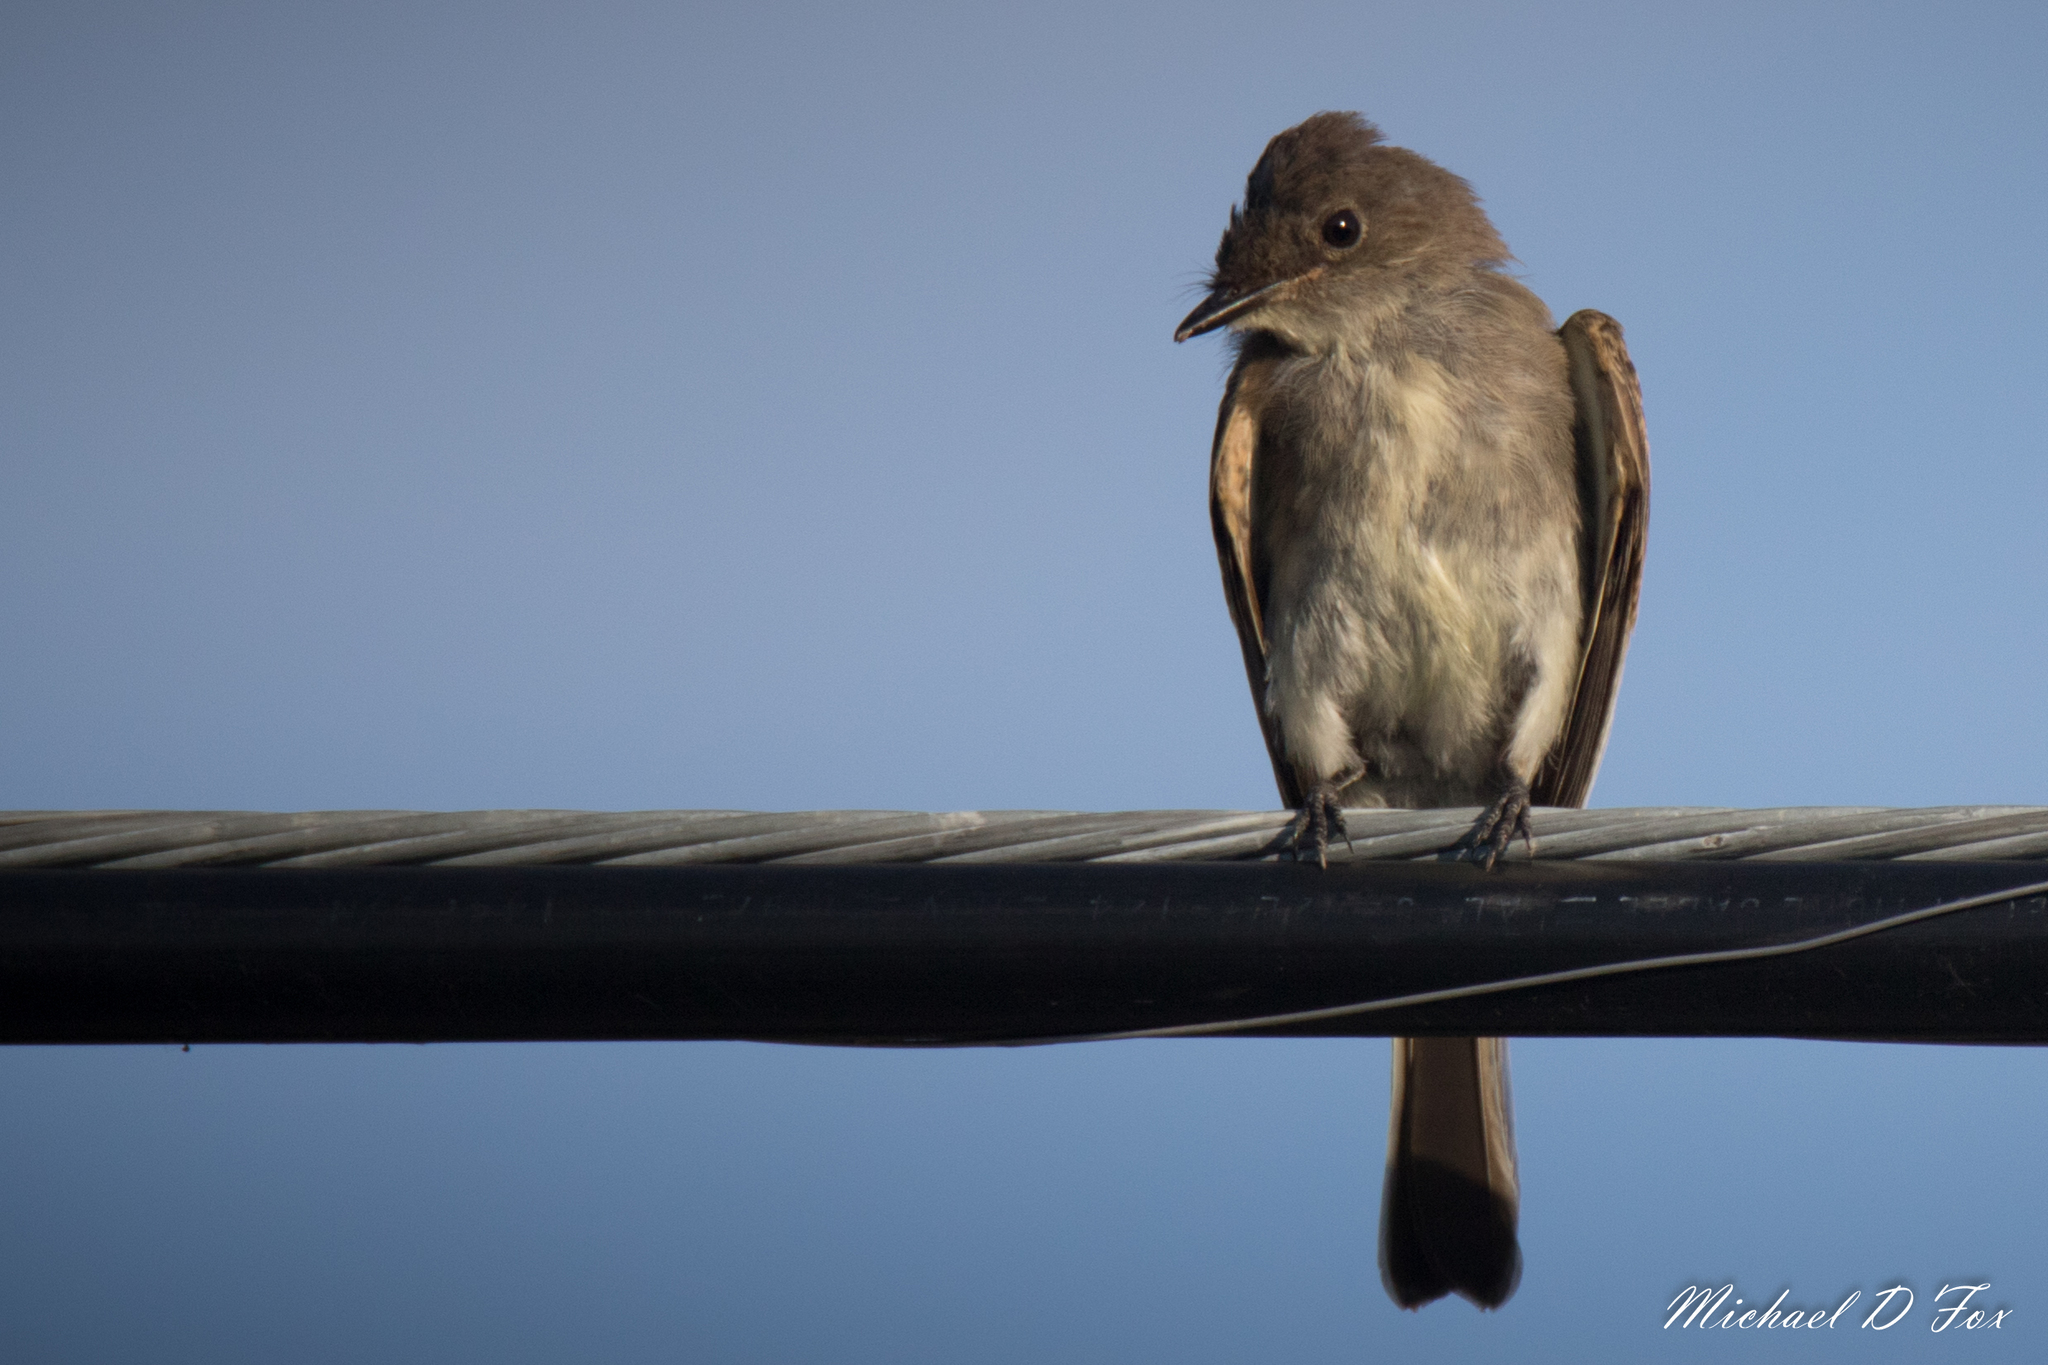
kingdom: Animalia
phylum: Chordata
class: Aves
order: Passeriformes
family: Tyrannidae
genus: Sayornis
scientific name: Sayornis phoebe
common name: Eastern phoebe
